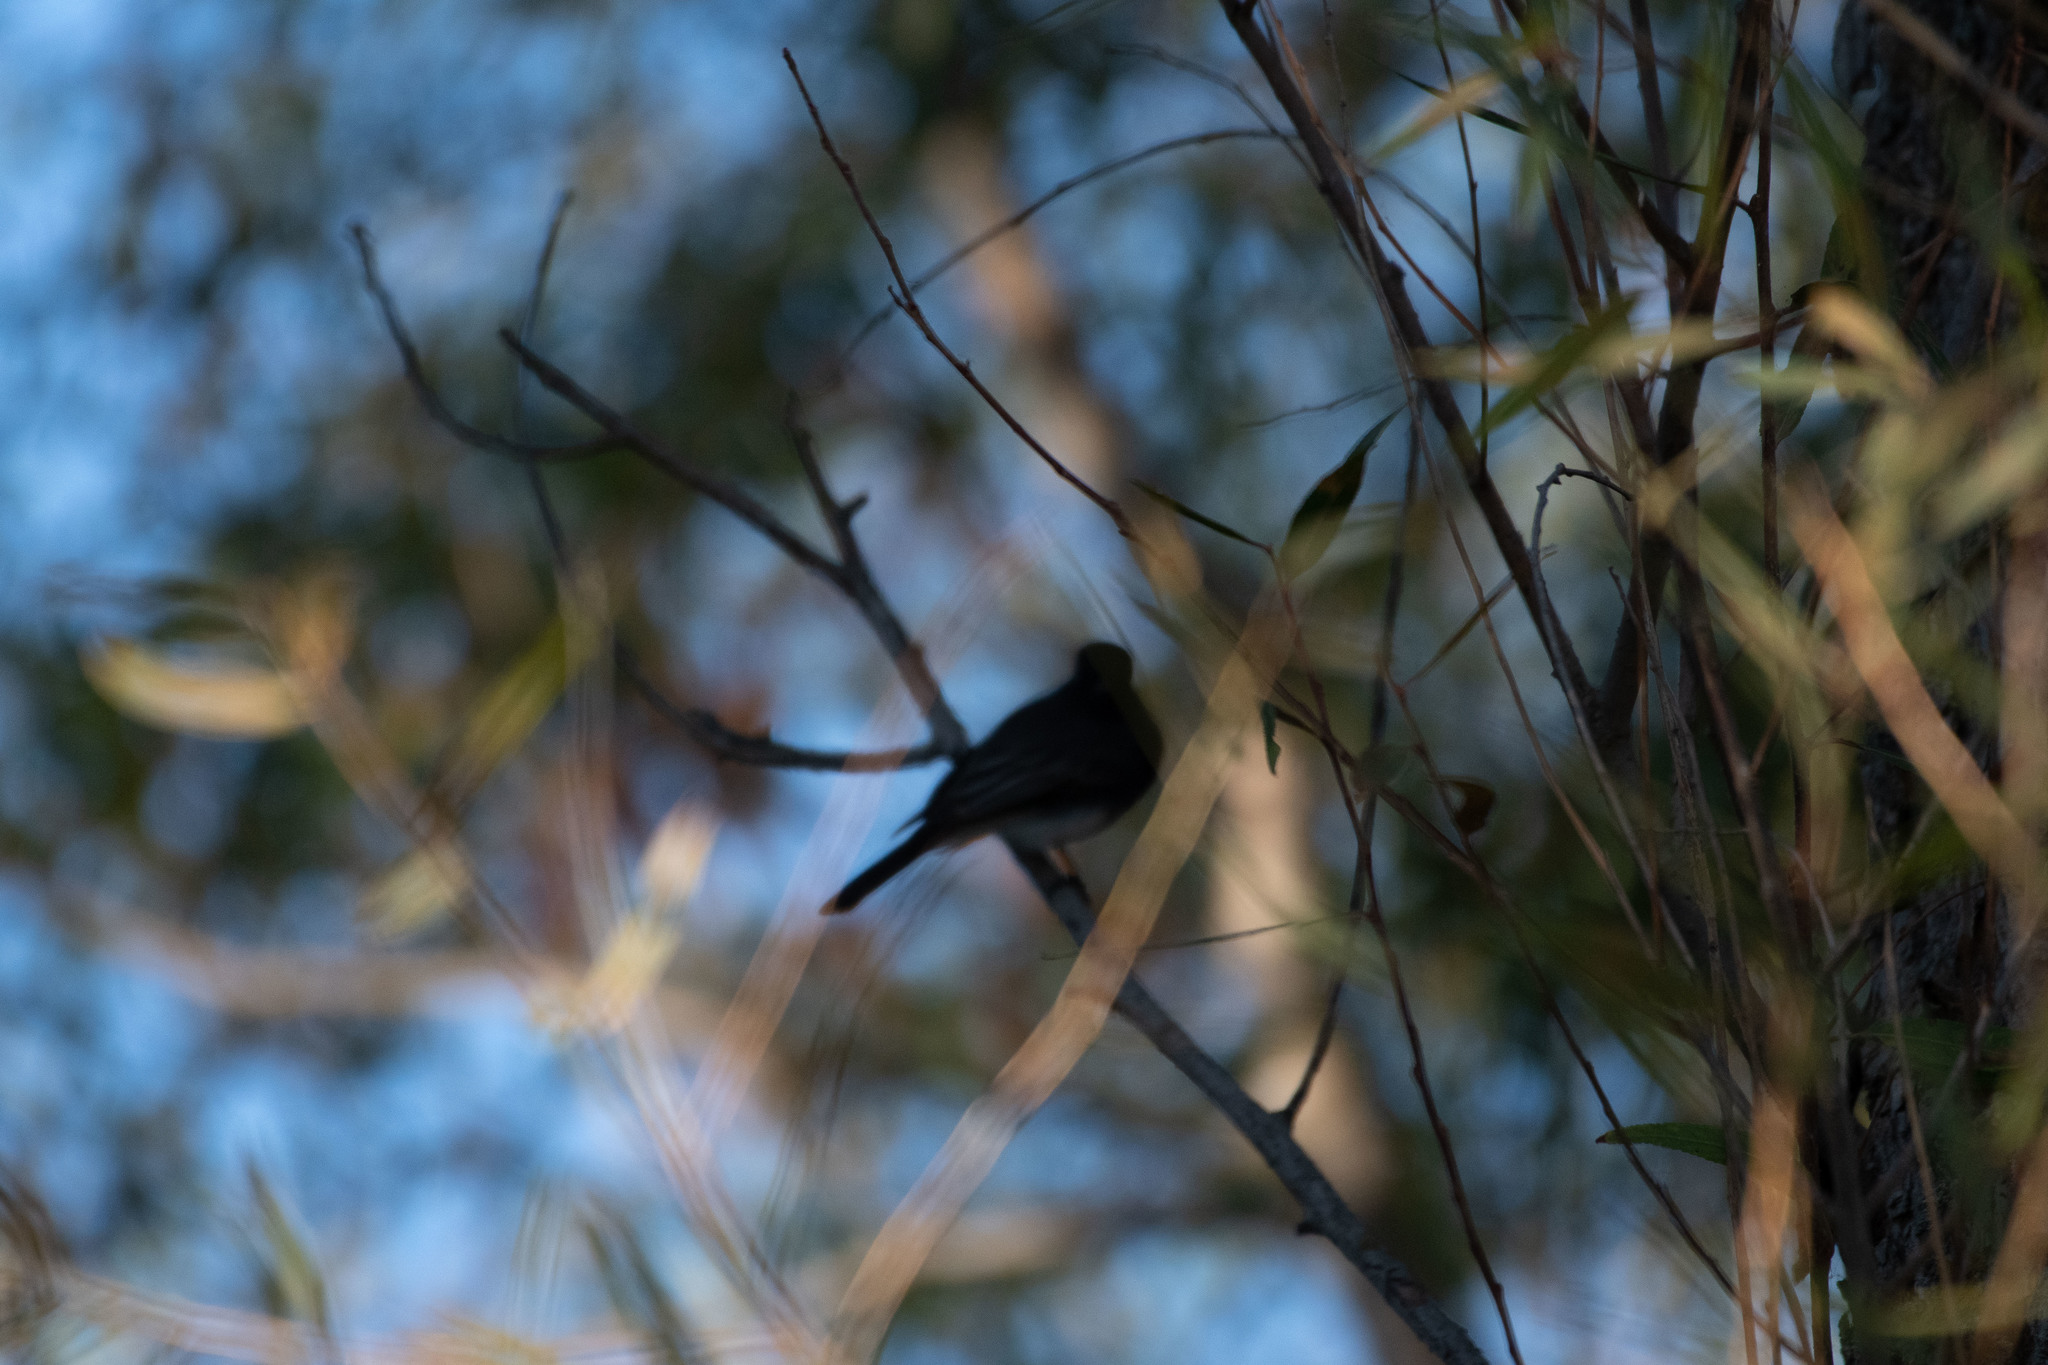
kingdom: Animalia
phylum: Chordata
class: Aves
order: Passeriformes
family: Tyrannidae
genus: Sayornis
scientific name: Sayornis nigricans
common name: Black phoebe
